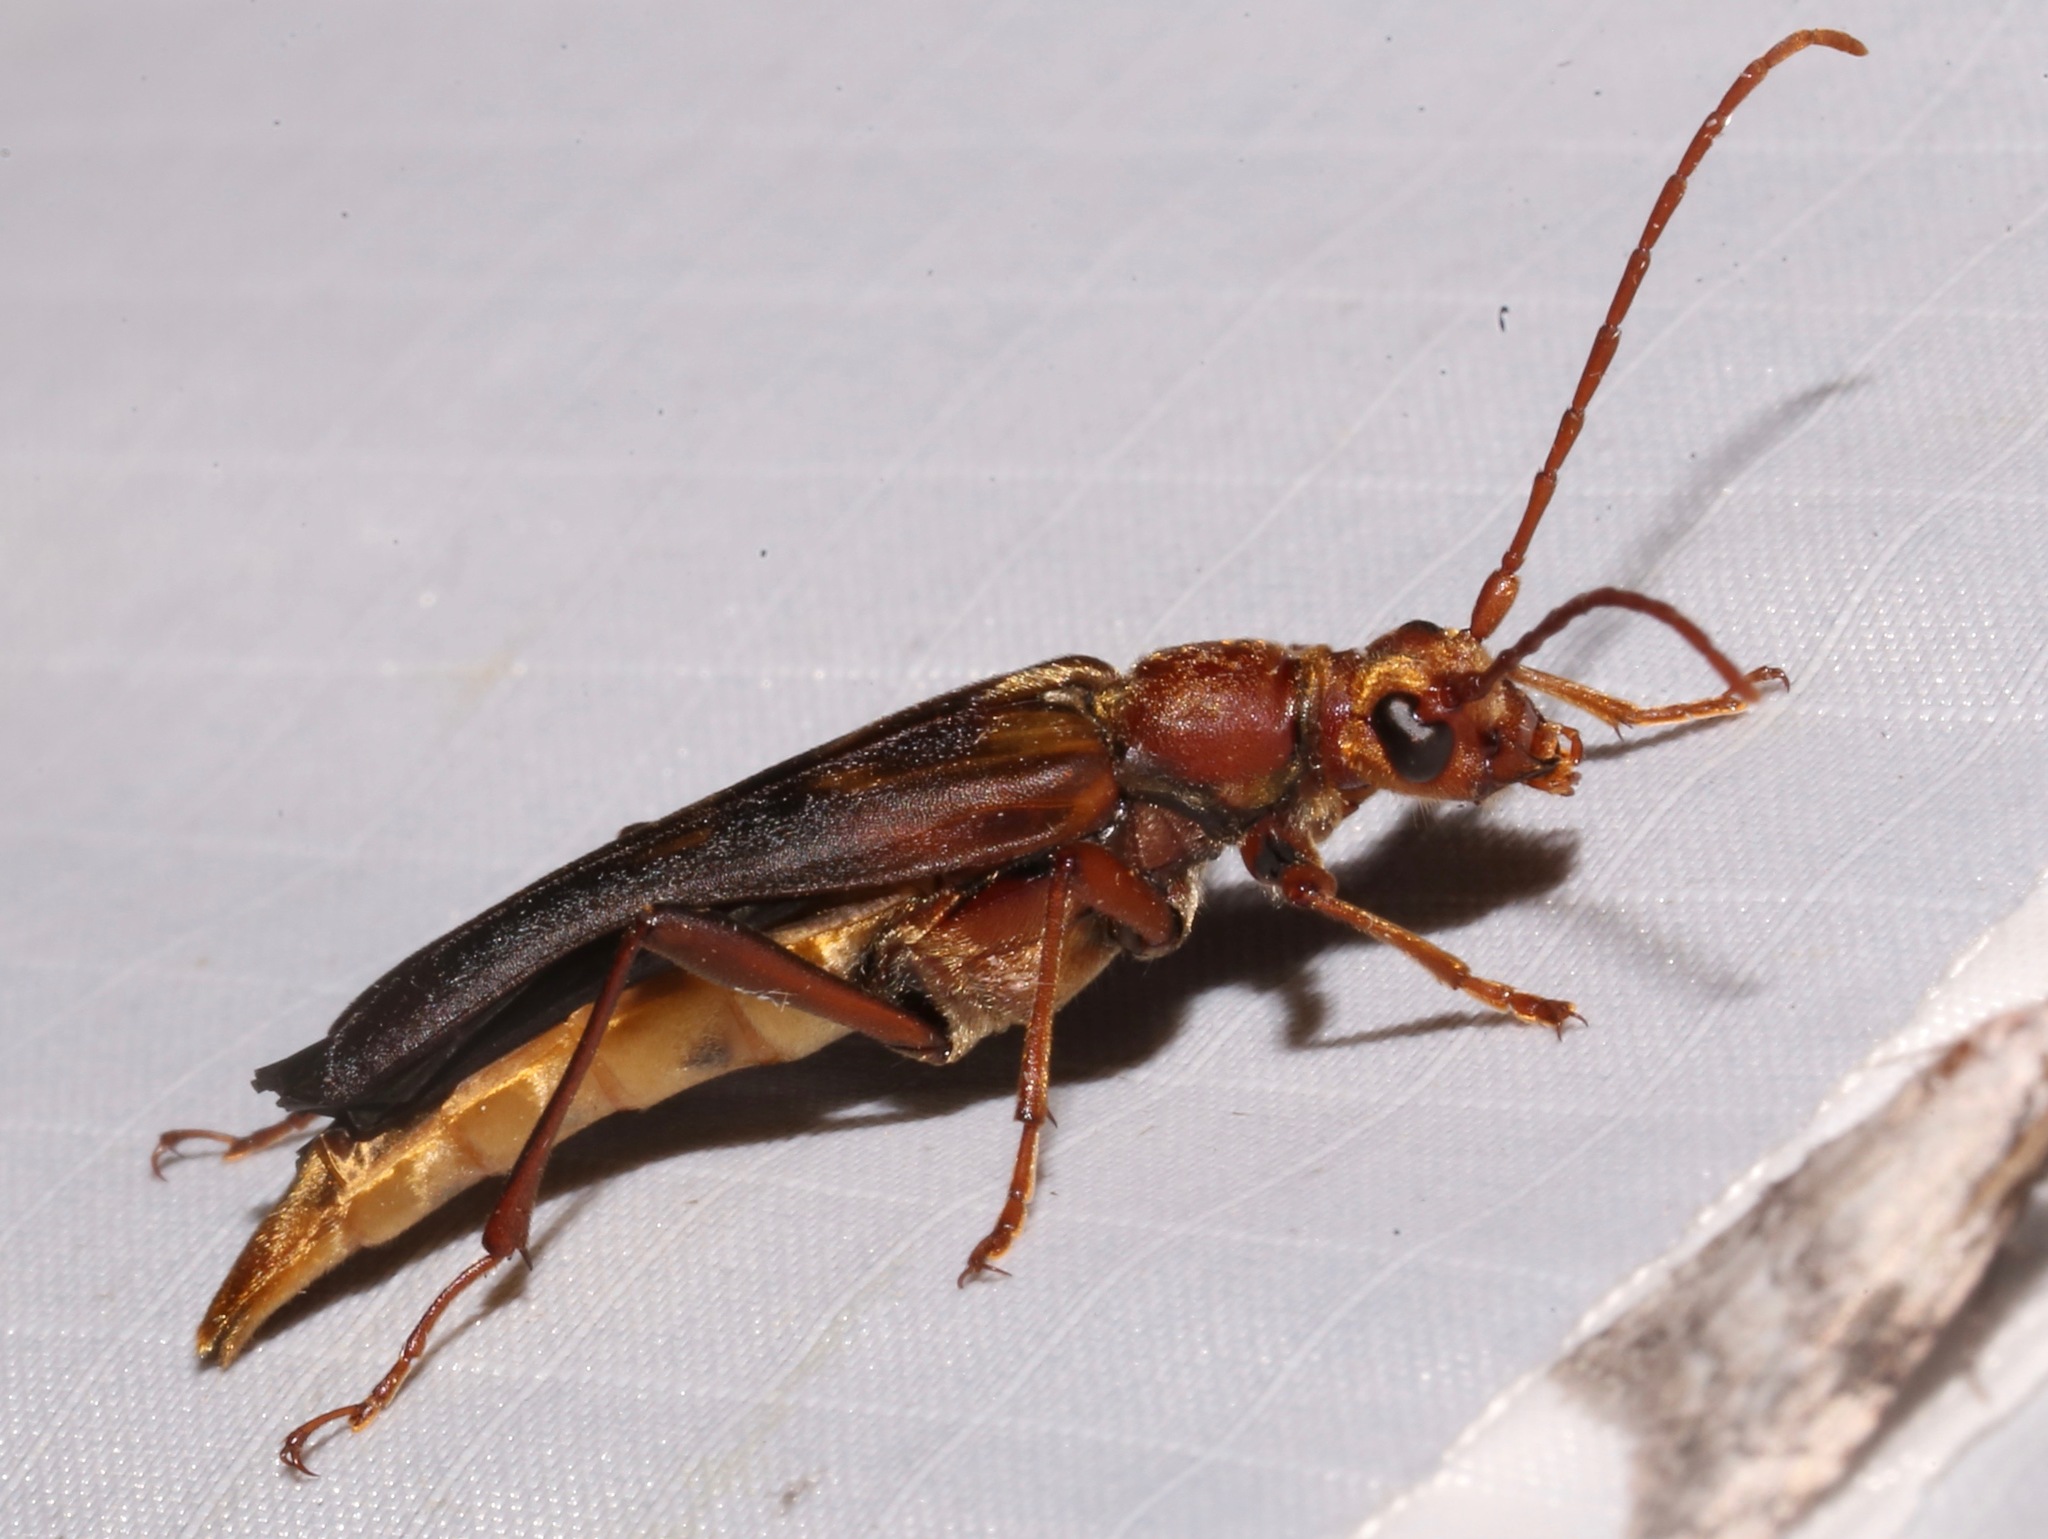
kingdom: Animalia
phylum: Arthropoda
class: Insecta
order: Coleoptera
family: Cerambycidae
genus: Bellamira
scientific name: Bellamira scalaris
